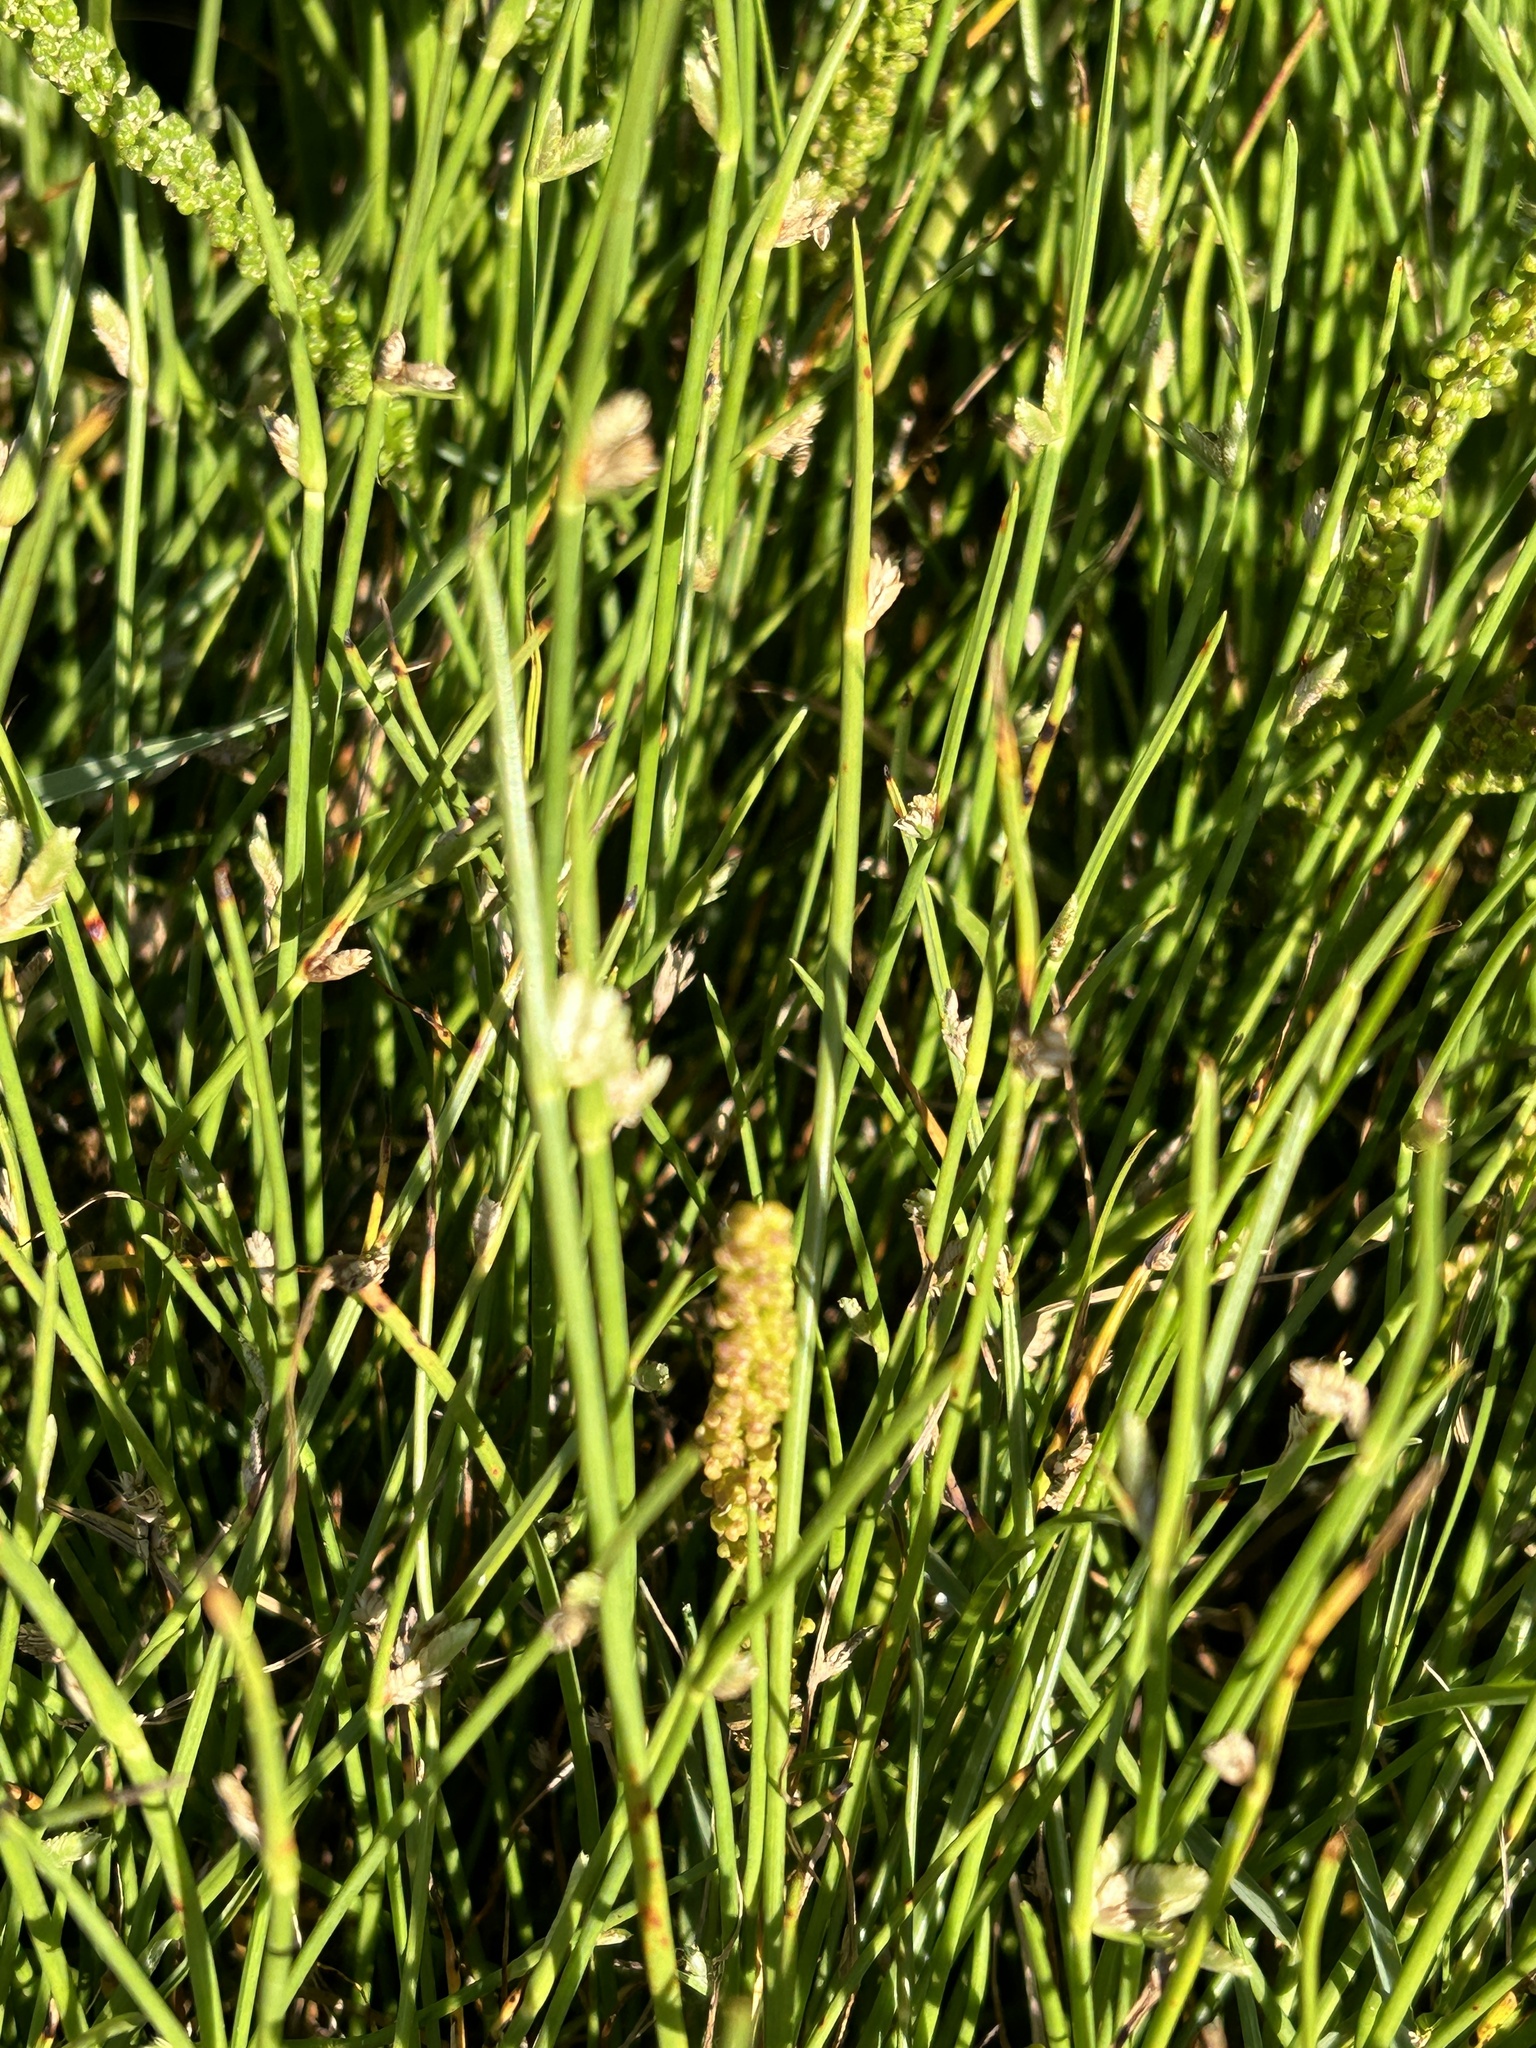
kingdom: Plantae
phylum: Tracheophyta
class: Liliopsida
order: Poales
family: Cyperaceae
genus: Cyperus
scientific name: Cyperus laevigatus
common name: Smooth flat sedge
